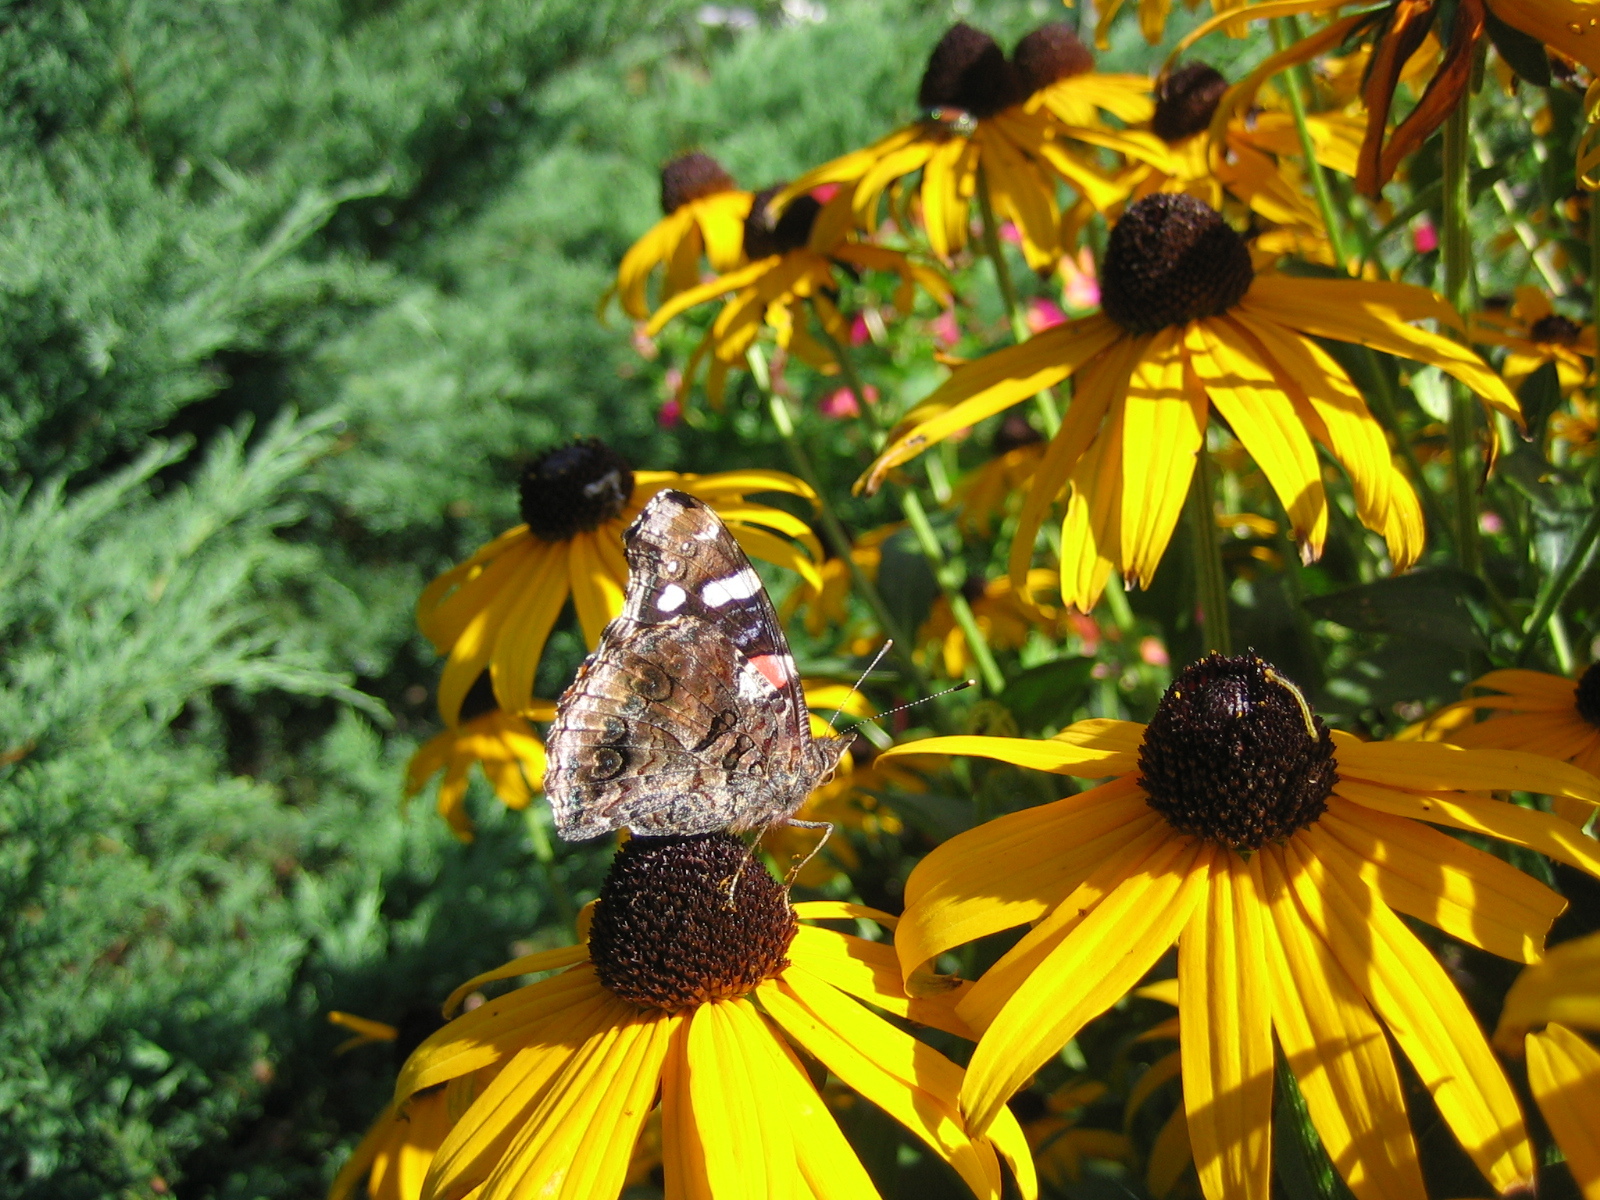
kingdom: Animalia
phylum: Arthropoda
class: Insecta
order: Lepidoptera
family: Nymphalidae
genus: Vanessa
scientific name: Vanessa atalanta
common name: Red admiral
